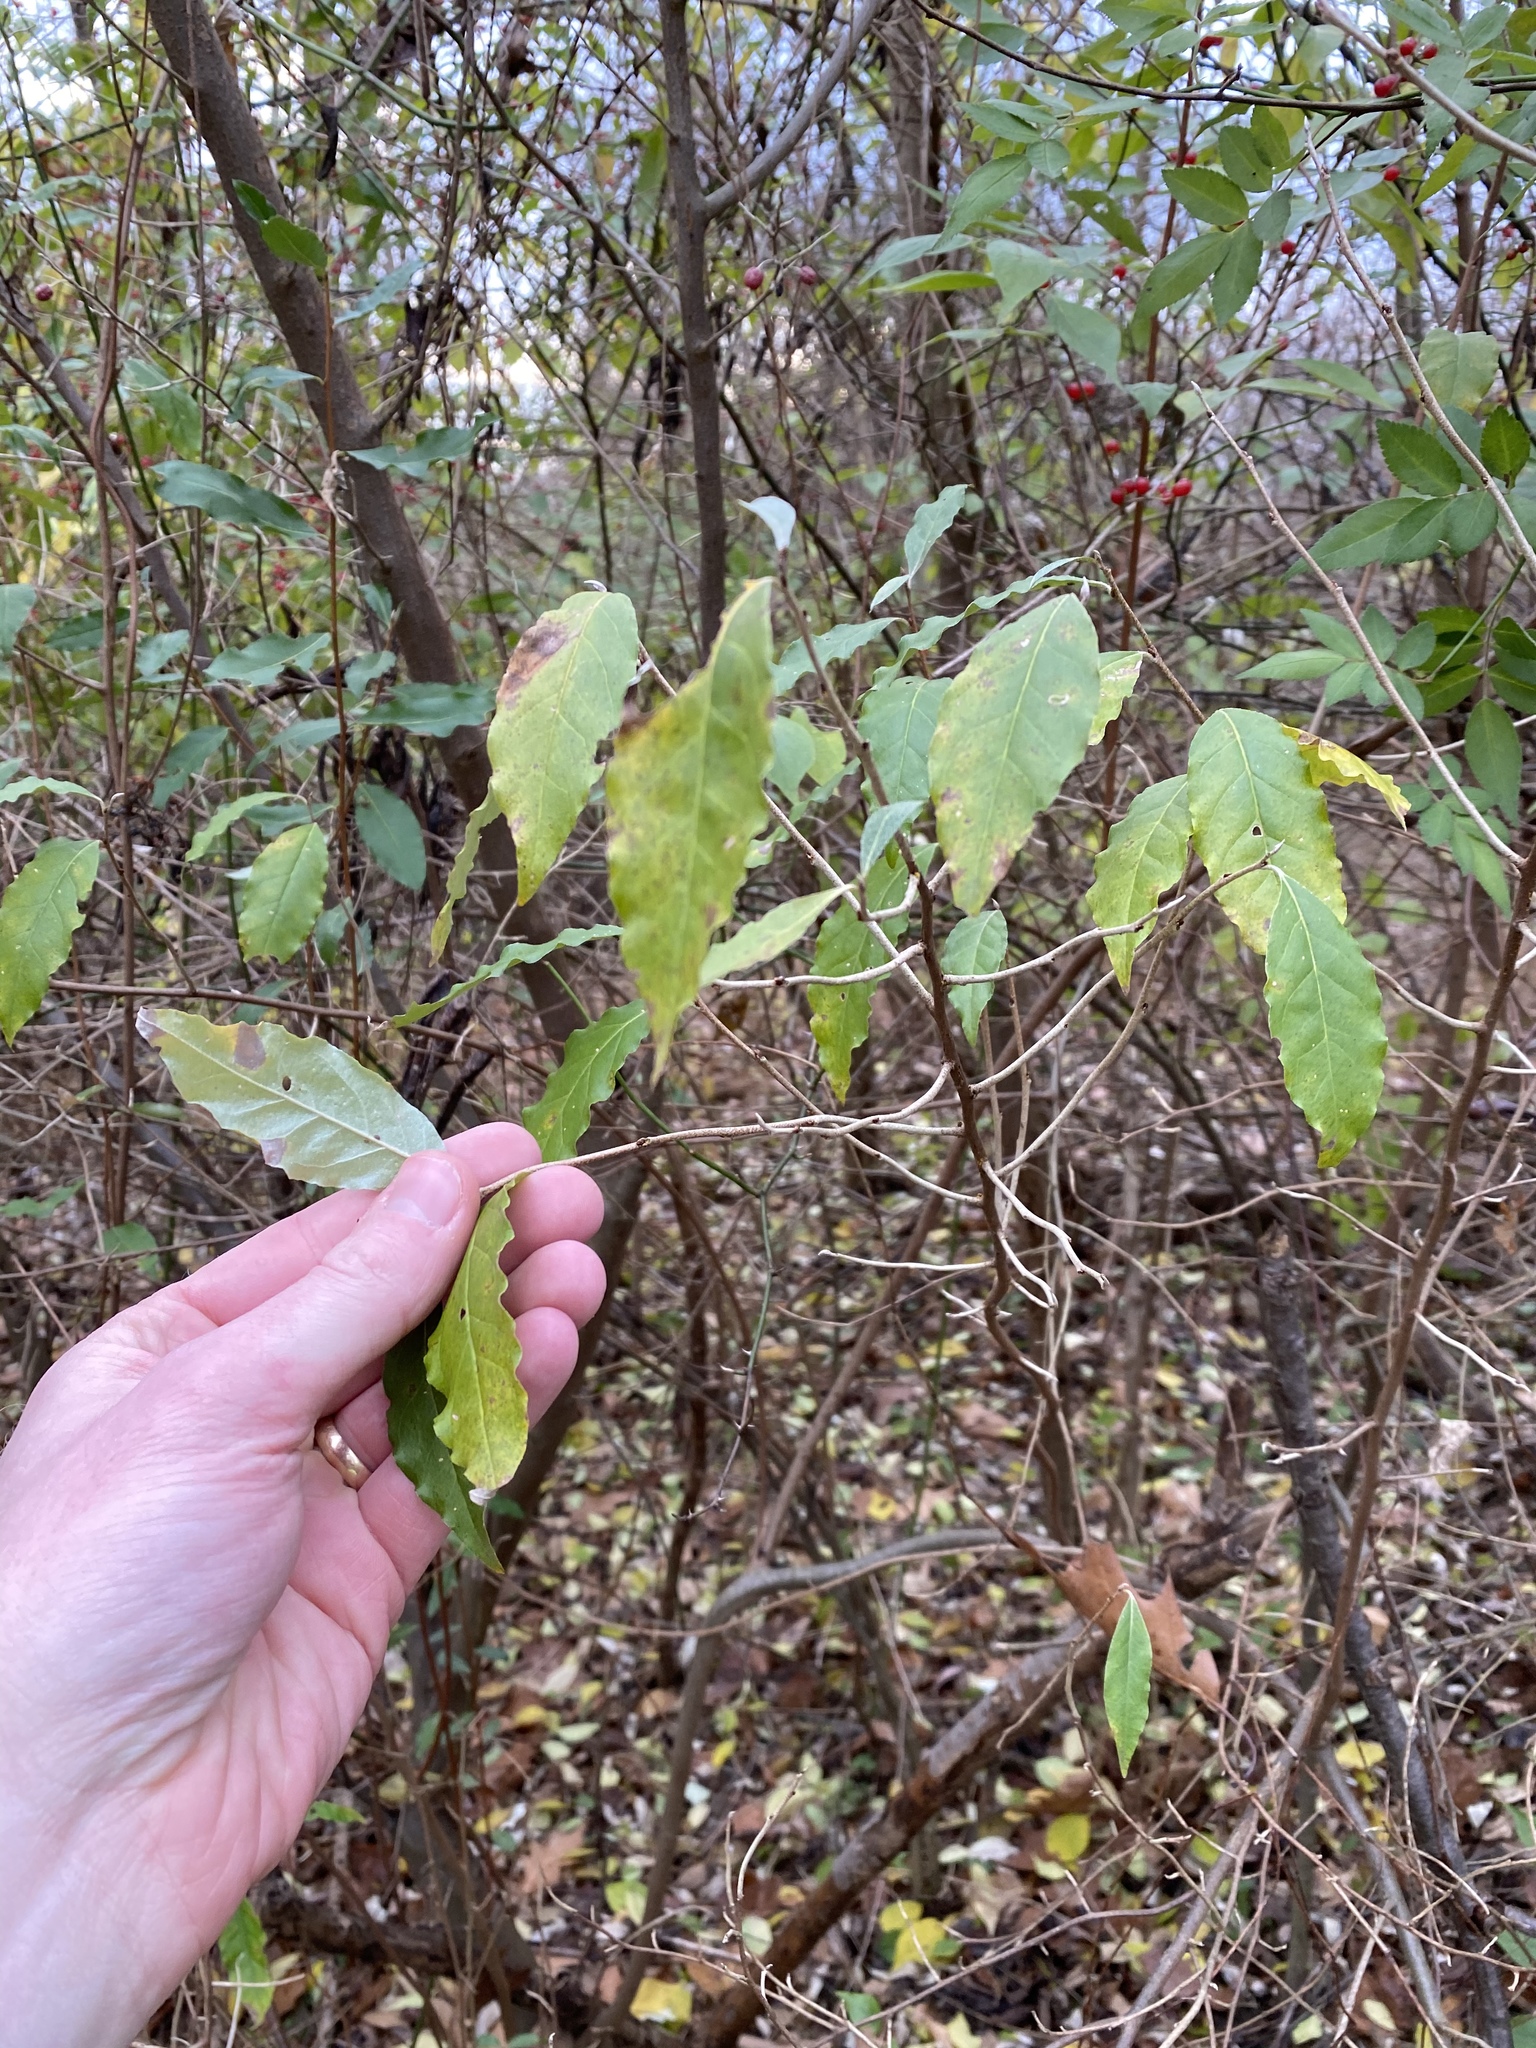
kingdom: Plantae
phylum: Tracheophyta
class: Magnoliopsida
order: Rosales
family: Elaeagnaceae
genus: Elaeagnus
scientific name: Elaeagnus umbellata
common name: Autumn olive
